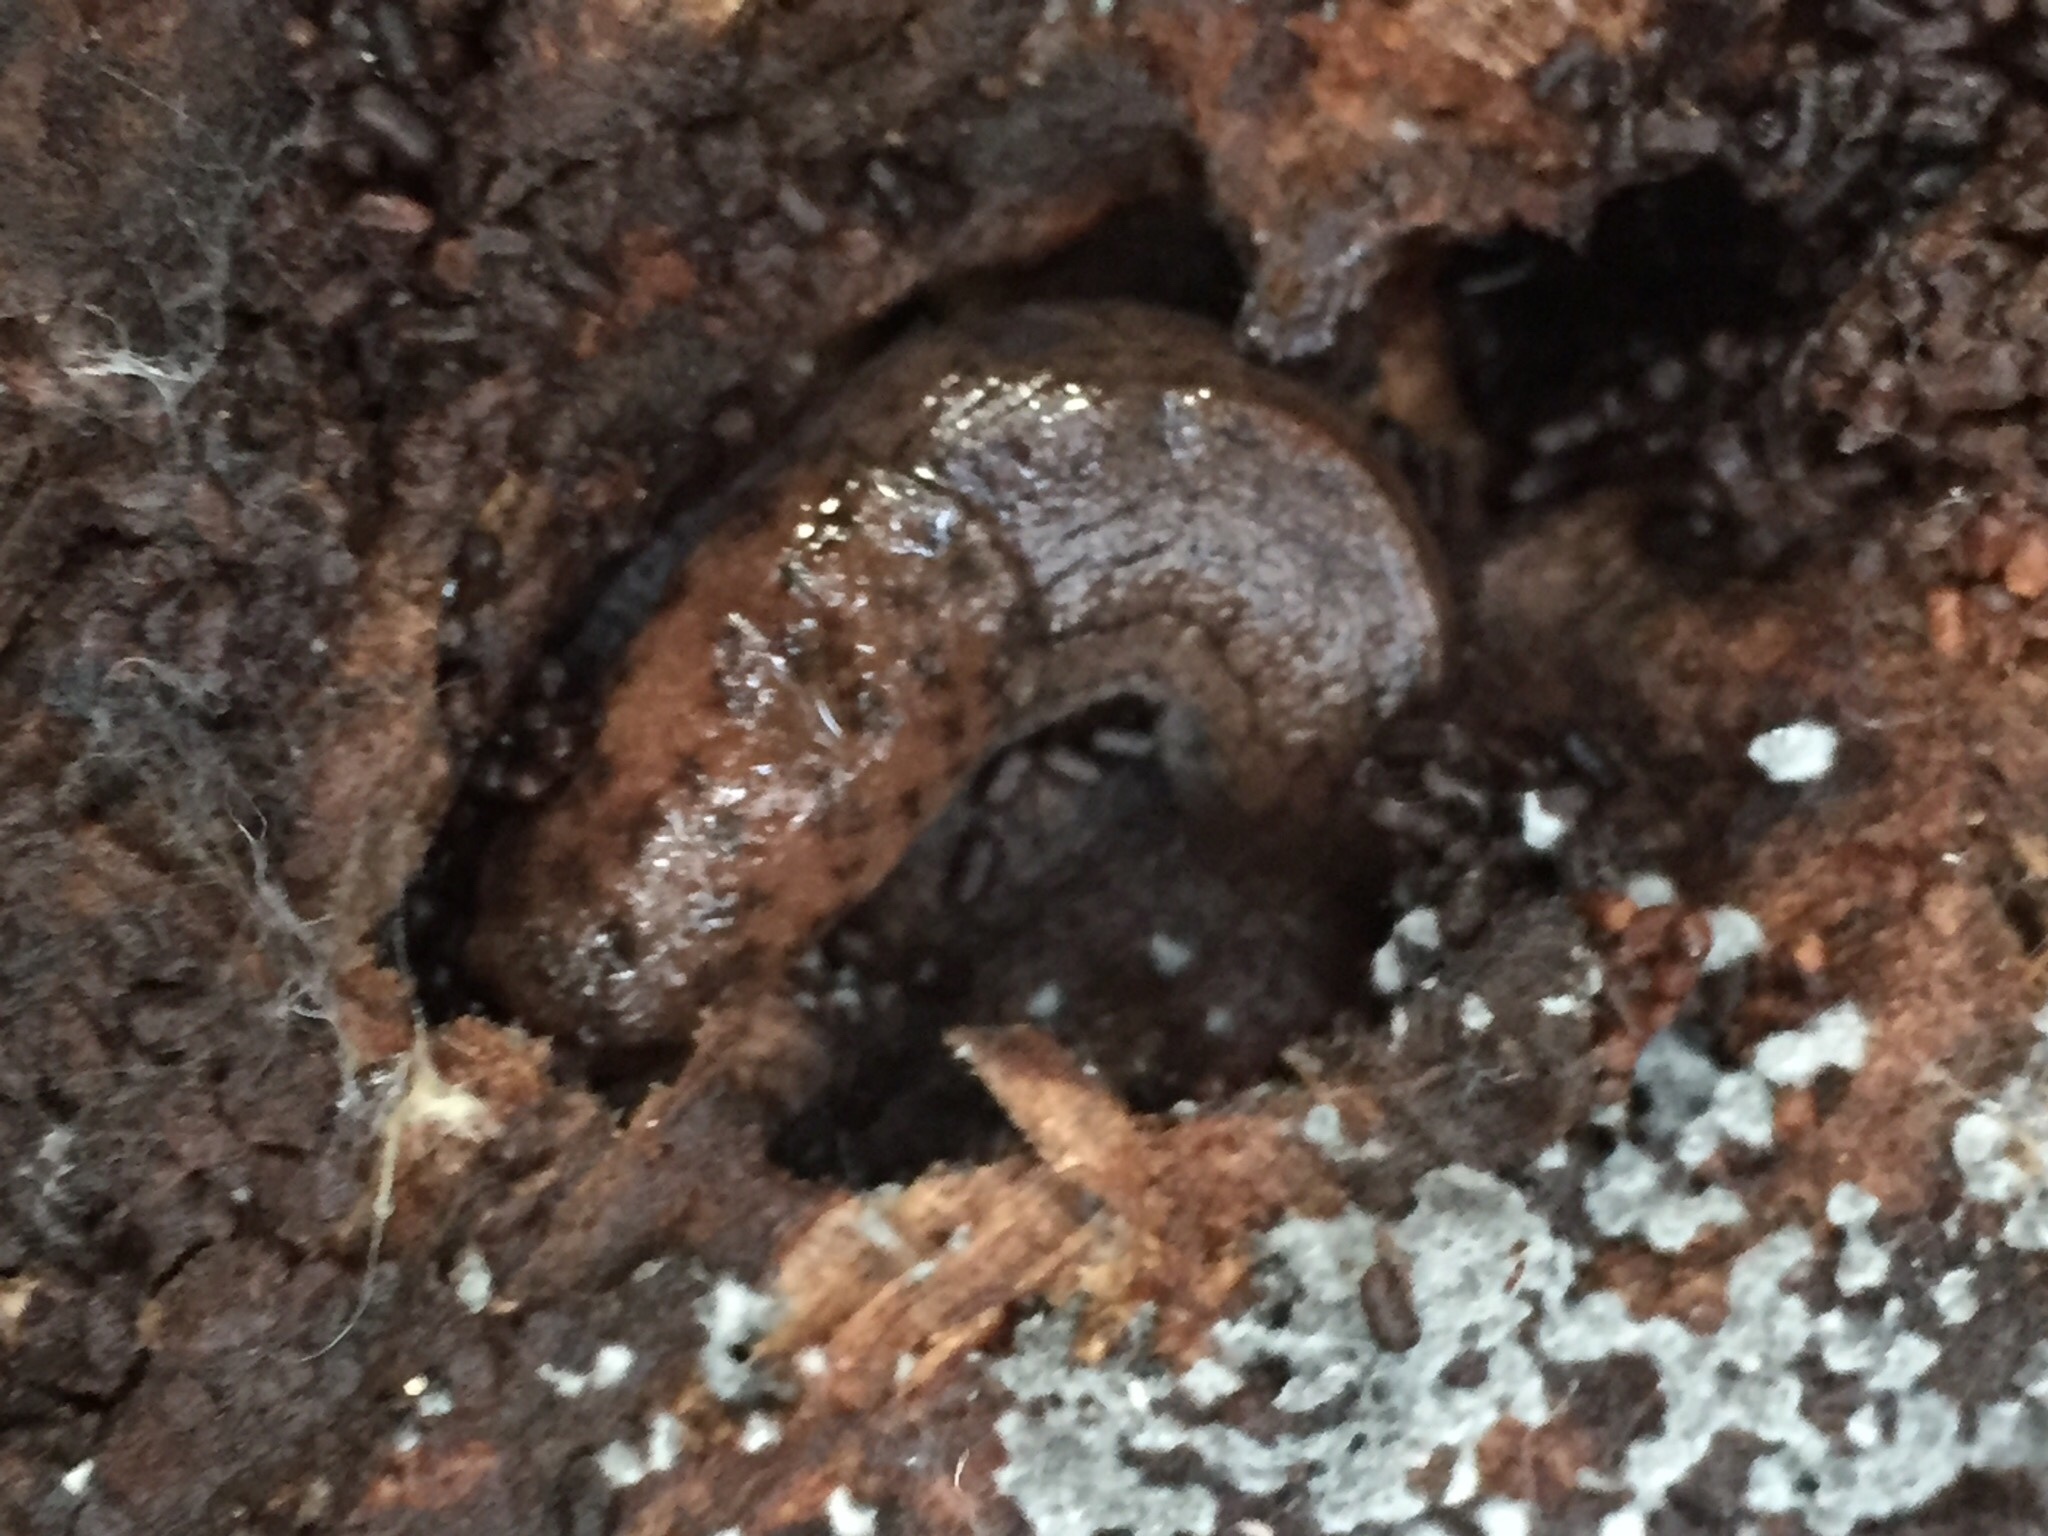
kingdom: Animalia
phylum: Mollusca
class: Gastropoda
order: Stylommatophora
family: Ariolimacidae
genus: Hesperarion
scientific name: Hesperarion niger
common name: Black western slug
